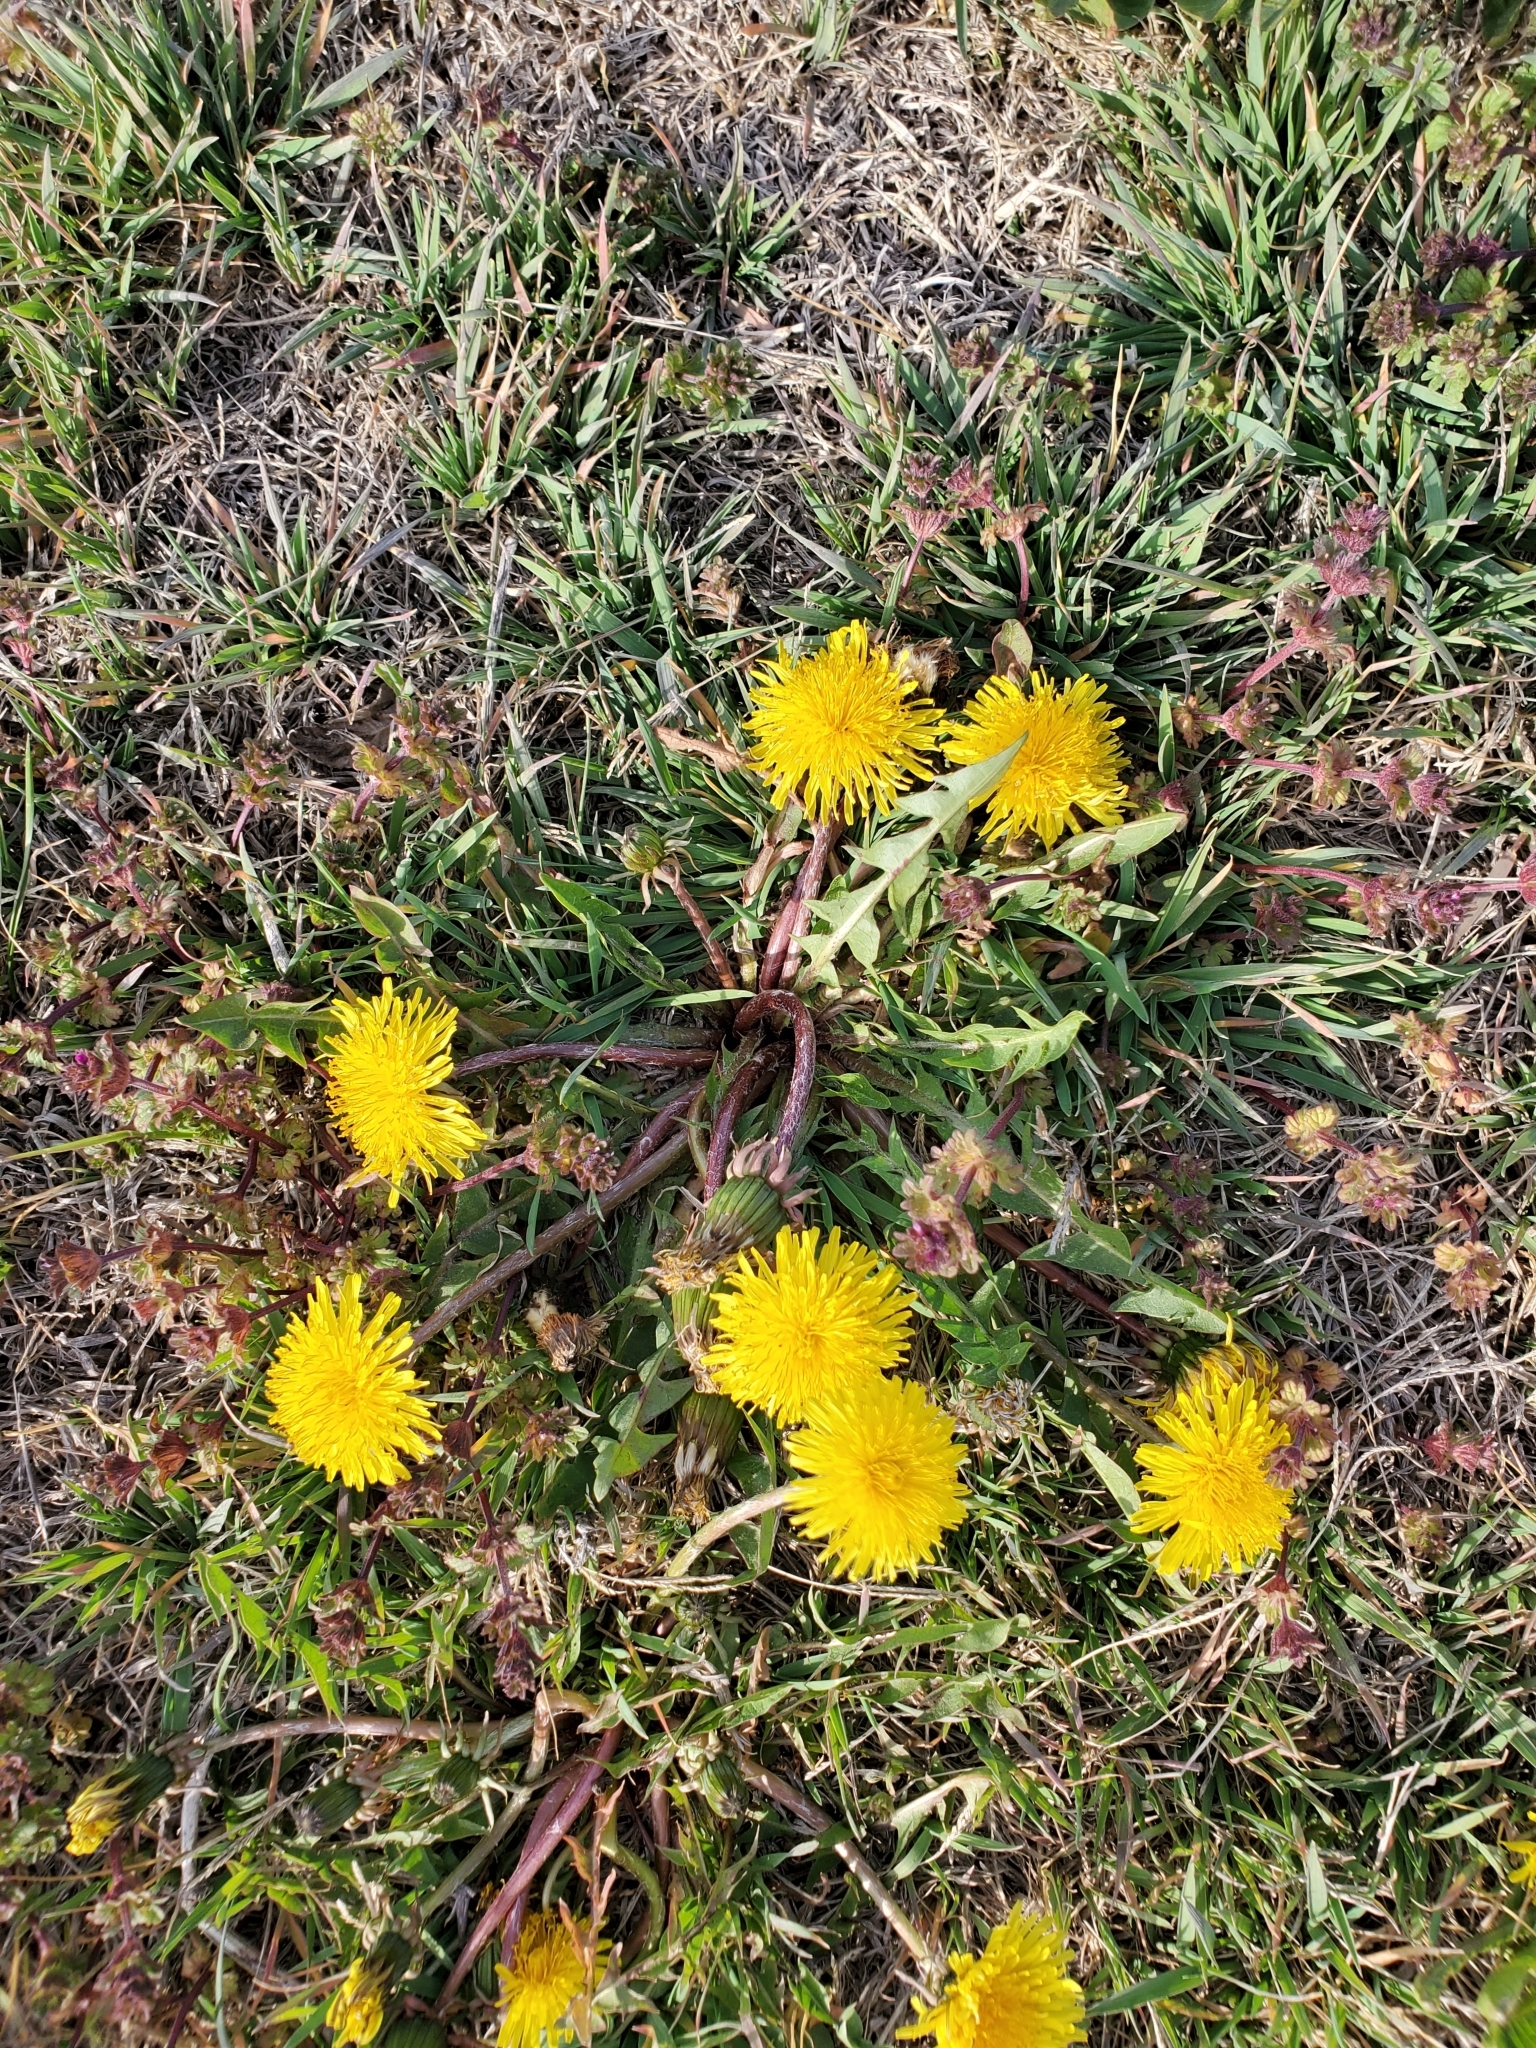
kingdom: Plantae
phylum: Tracheophyta
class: Magnoliopsida
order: Asterales
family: Asteraceae
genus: Taraxacum
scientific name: Taraxacum
